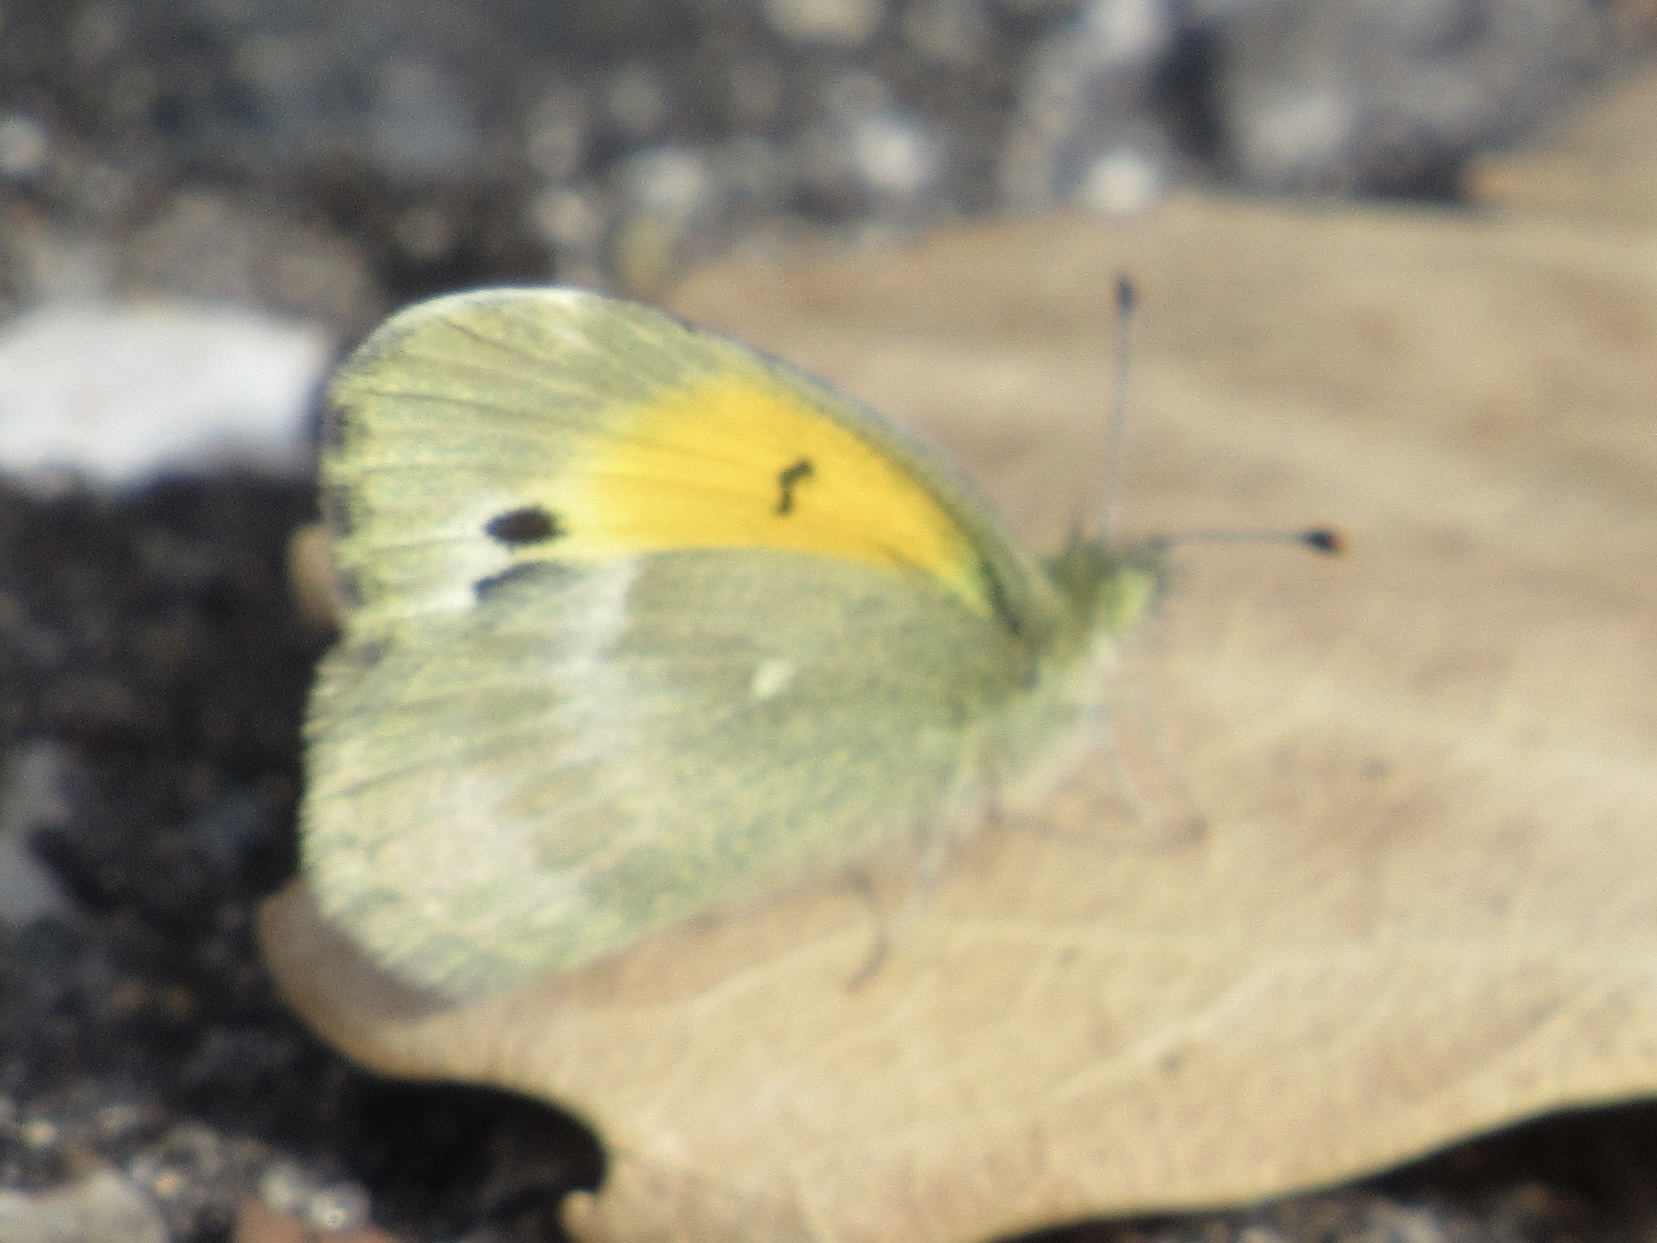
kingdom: Animalia
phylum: Arthropoda
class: Insecta
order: Lepidoptera
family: Pieridae
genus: Nathalis
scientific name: Nathalis iole
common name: Dainty sulphur
